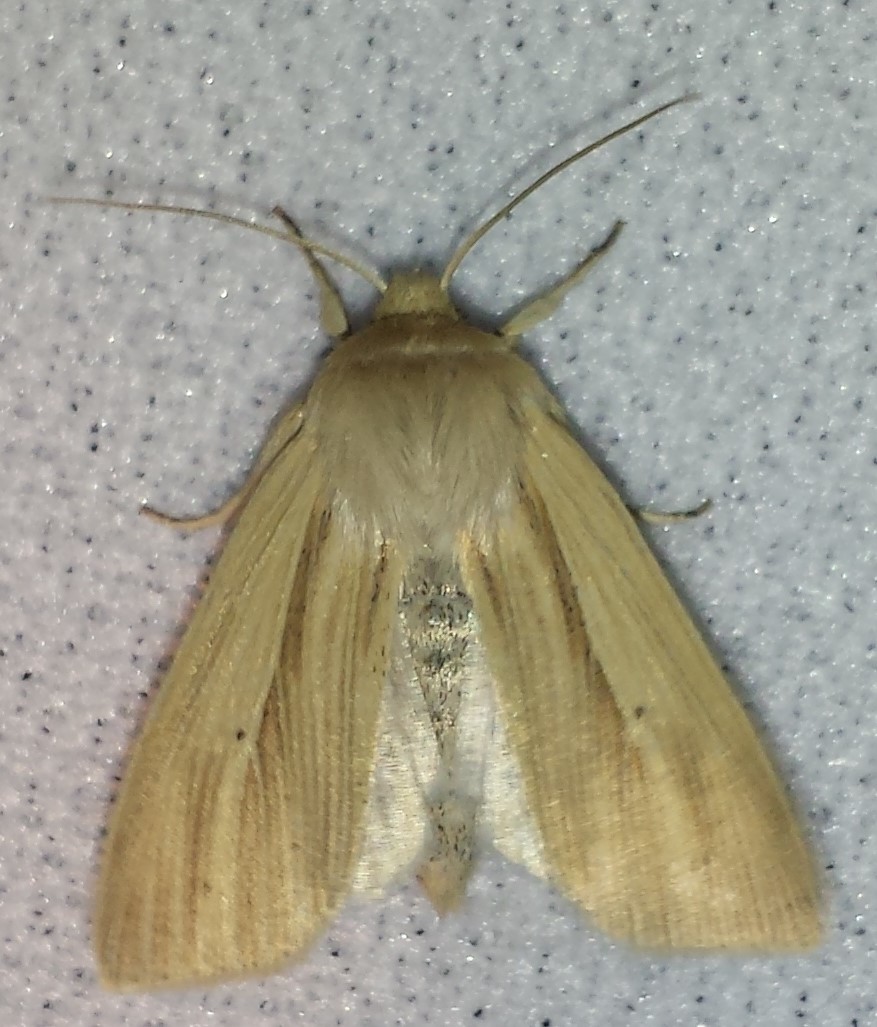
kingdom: Animalia
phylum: Arthropoda
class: Insecta
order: Lepidoptera
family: Noctuidae
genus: Mythimna
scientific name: Mythimna oxygala
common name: Lesser wainscot
